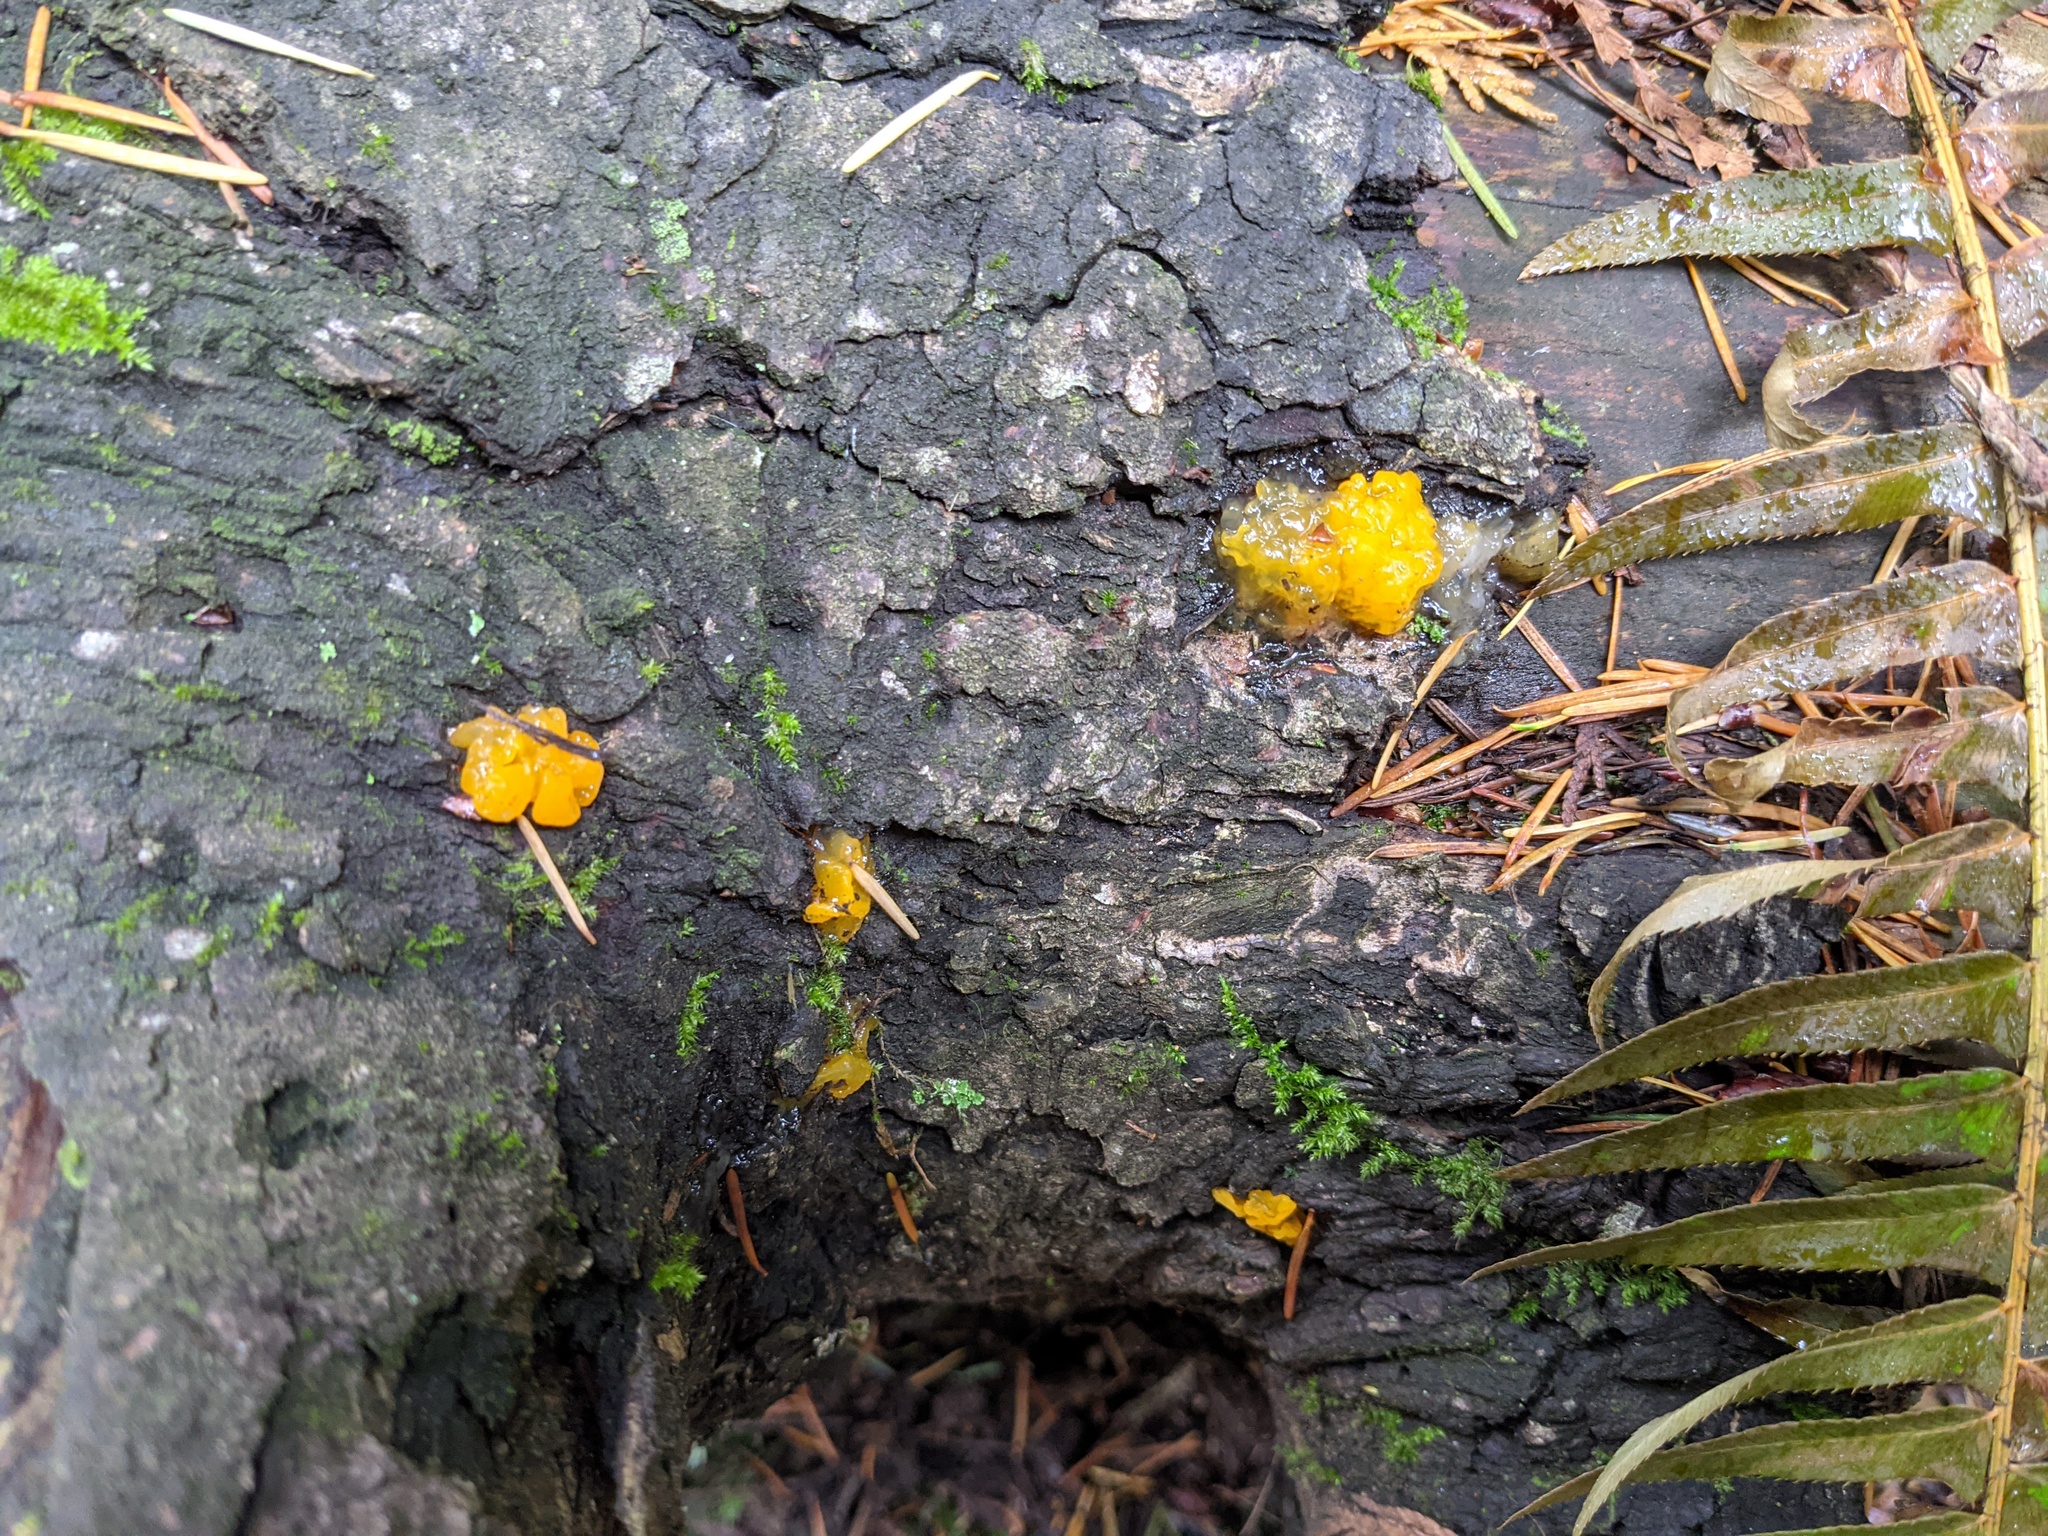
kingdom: Fungi
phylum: Basidiomycota
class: Dacrymycetes
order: Dacrymycetales
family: Dacrymycetaceae
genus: Dacrymyces
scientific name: Dacrymyces chrysospermus
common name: Orange jelly spot
